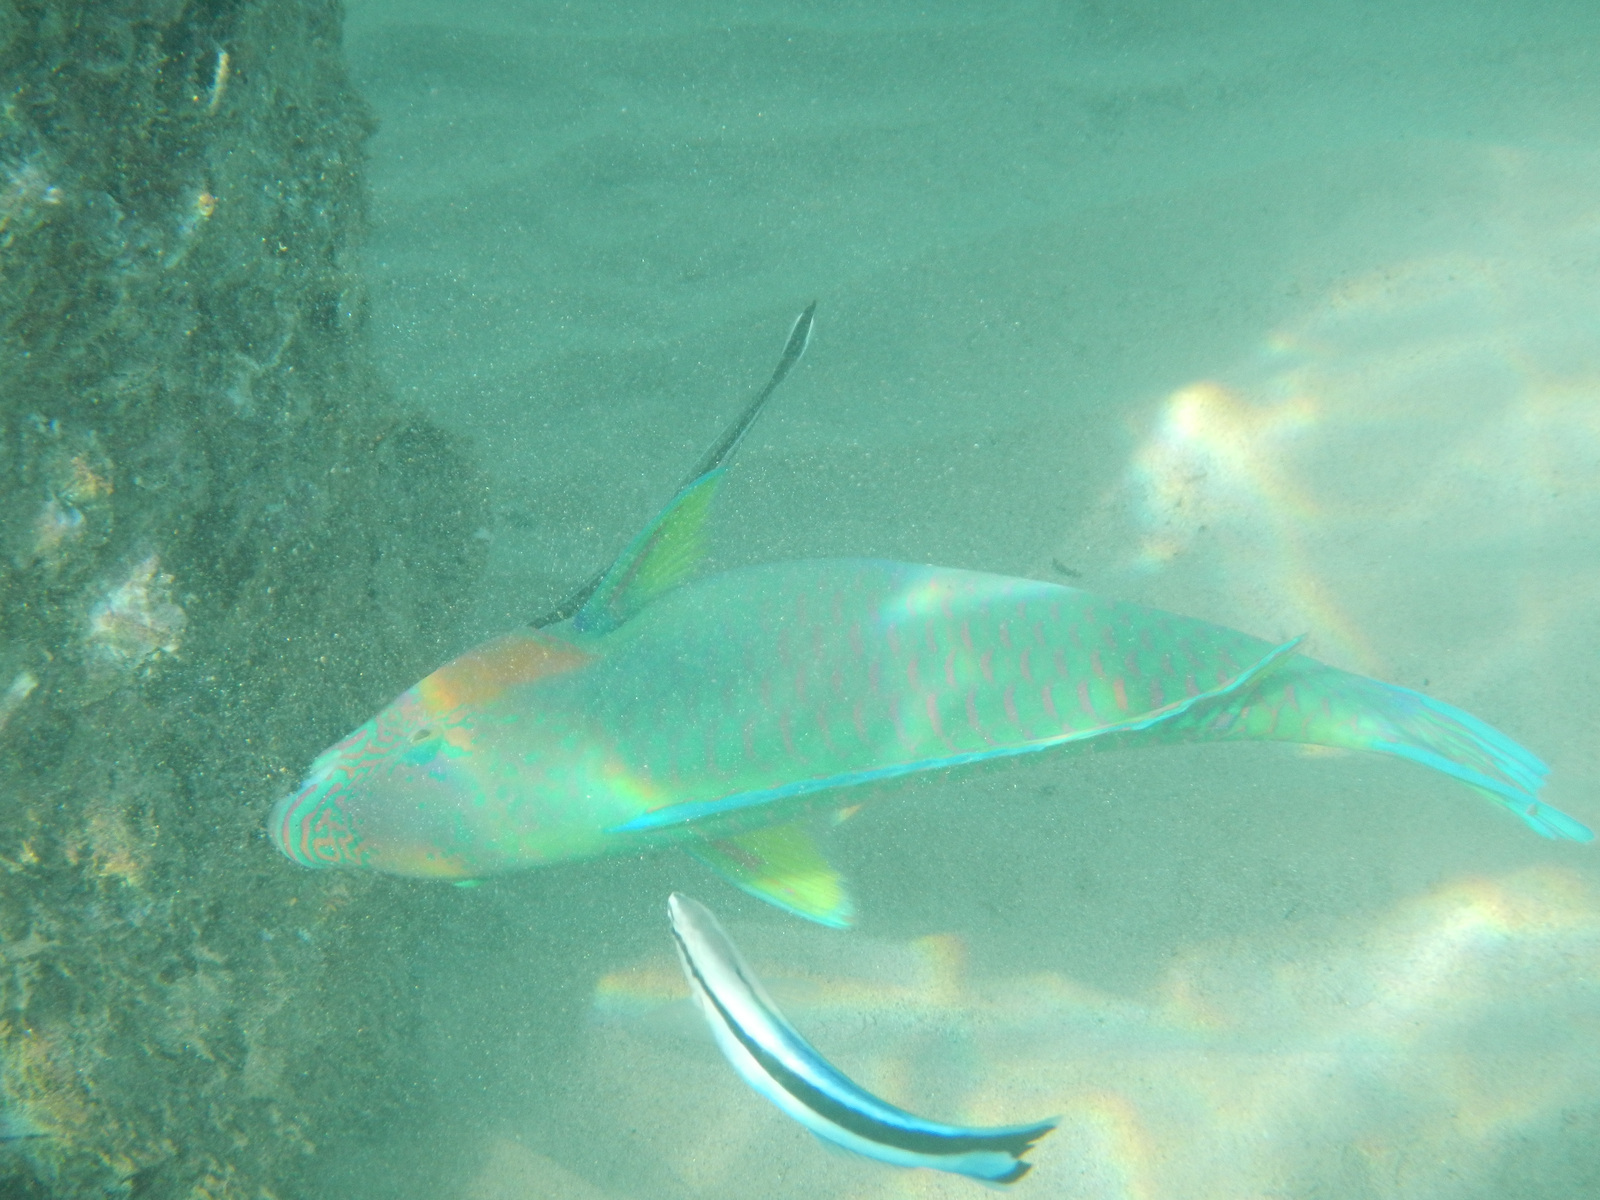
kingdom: Animalia
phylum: Chordata
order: Perciformes
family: Labridae
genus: Labroides
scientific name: Labroides dimidiatus
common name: Blue diesel wrasse
